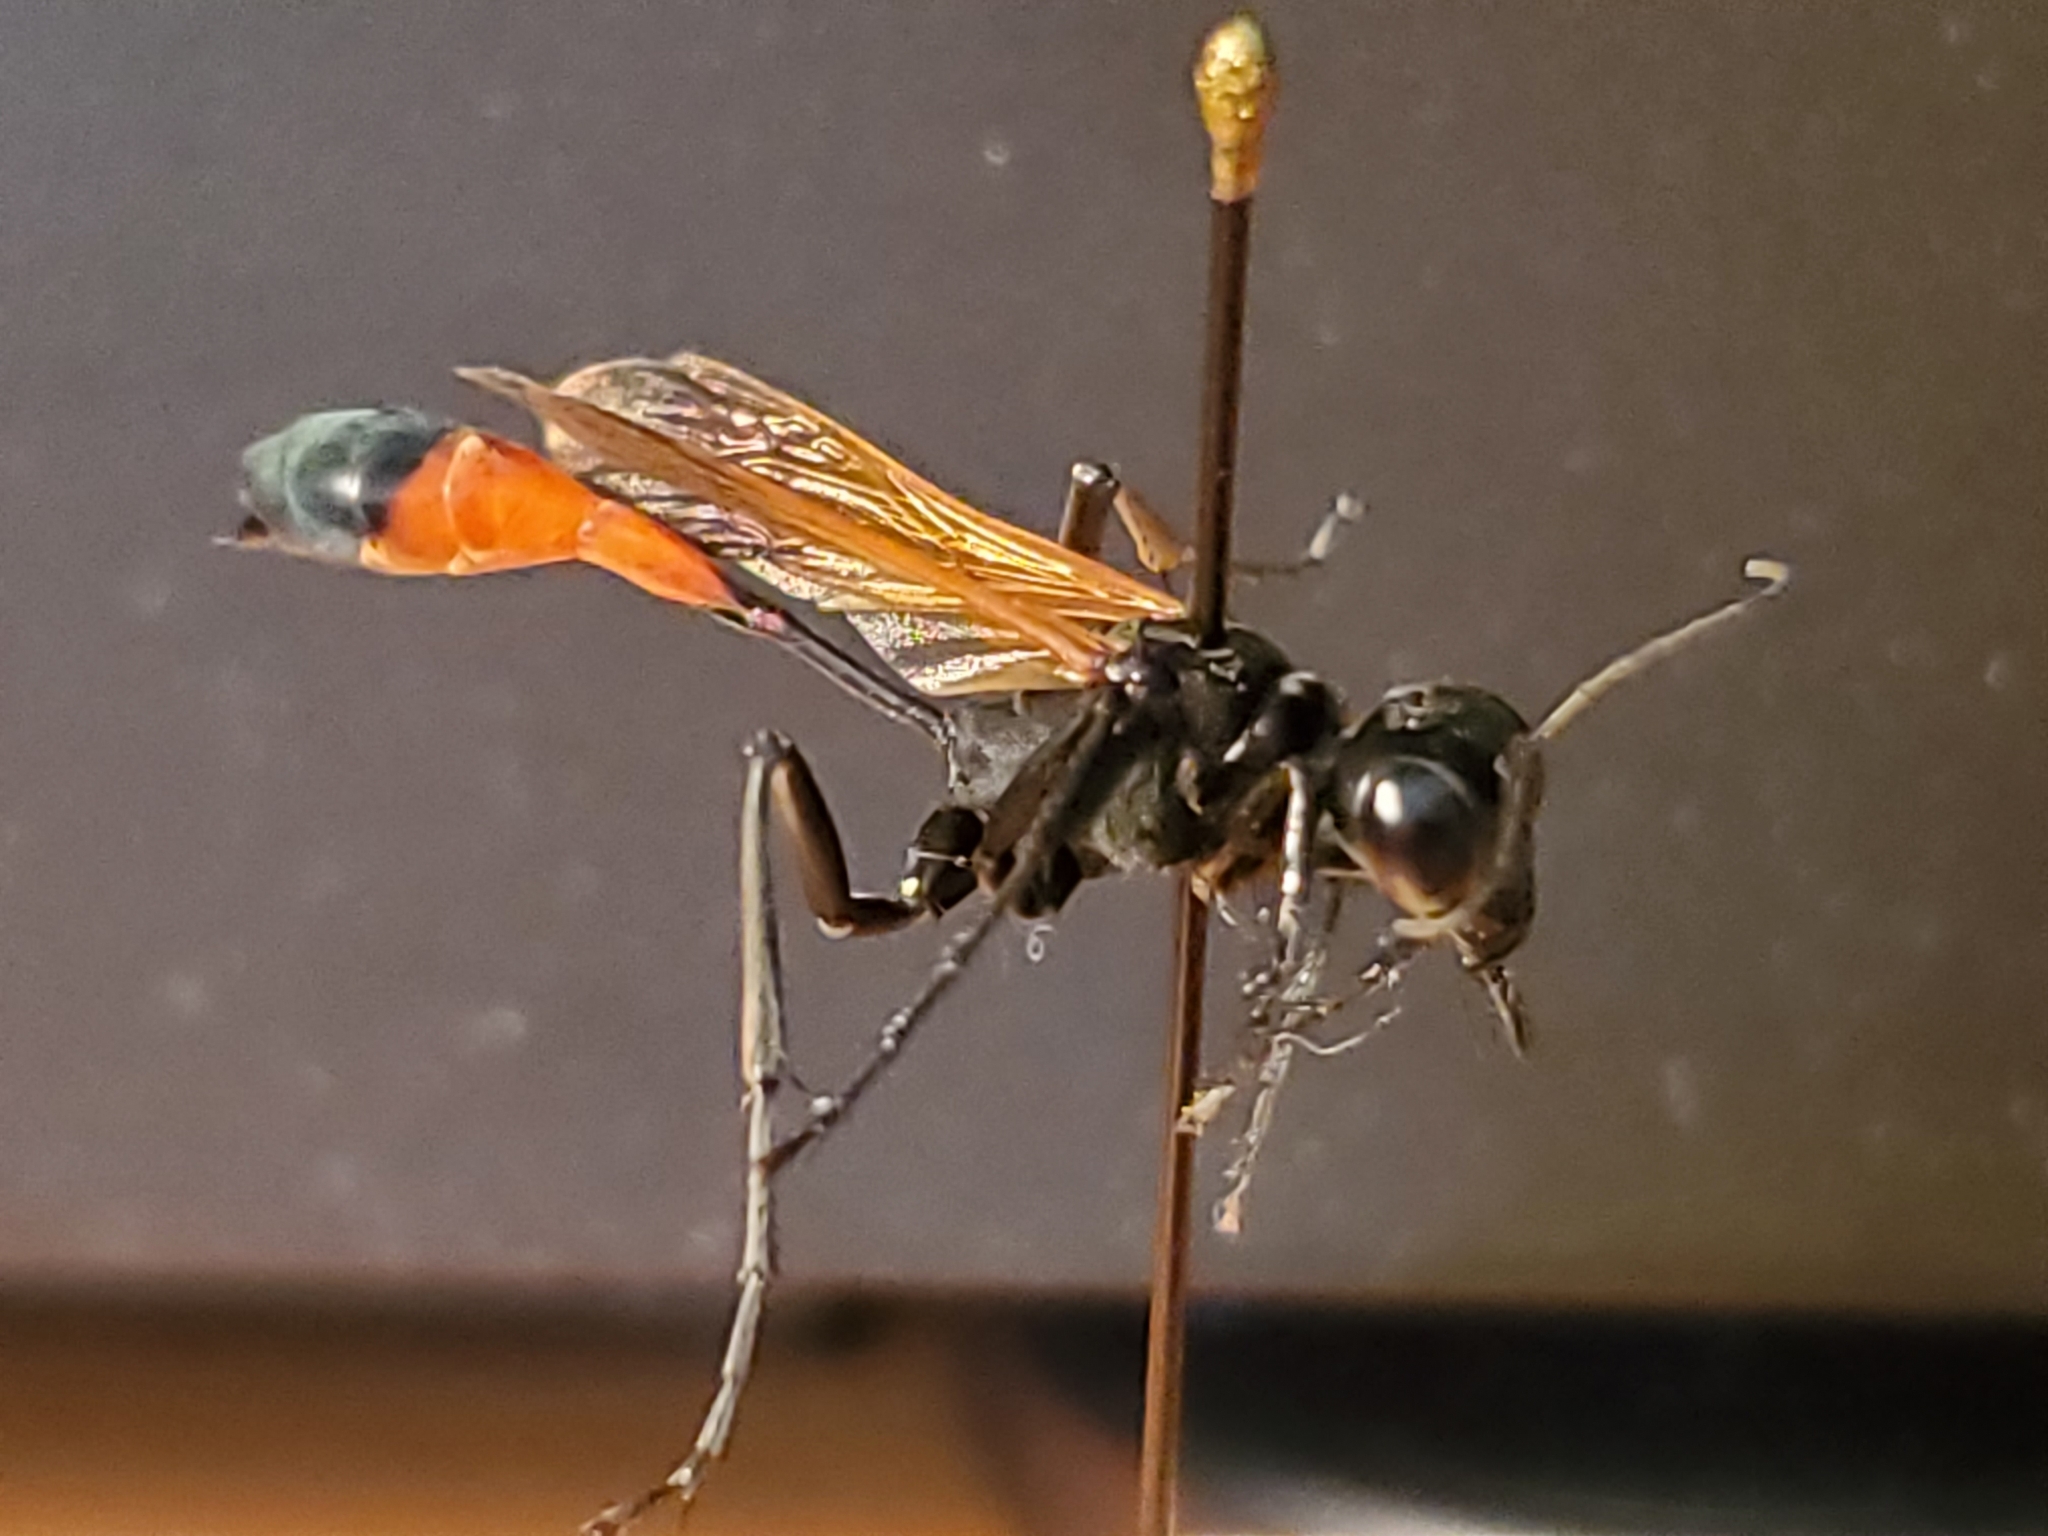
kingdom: Animalia
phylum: Arthropoda
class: Insecta
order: Hymenoptera
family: Sphecidae
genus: Ammophila
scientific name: Ammophila pictipennis
